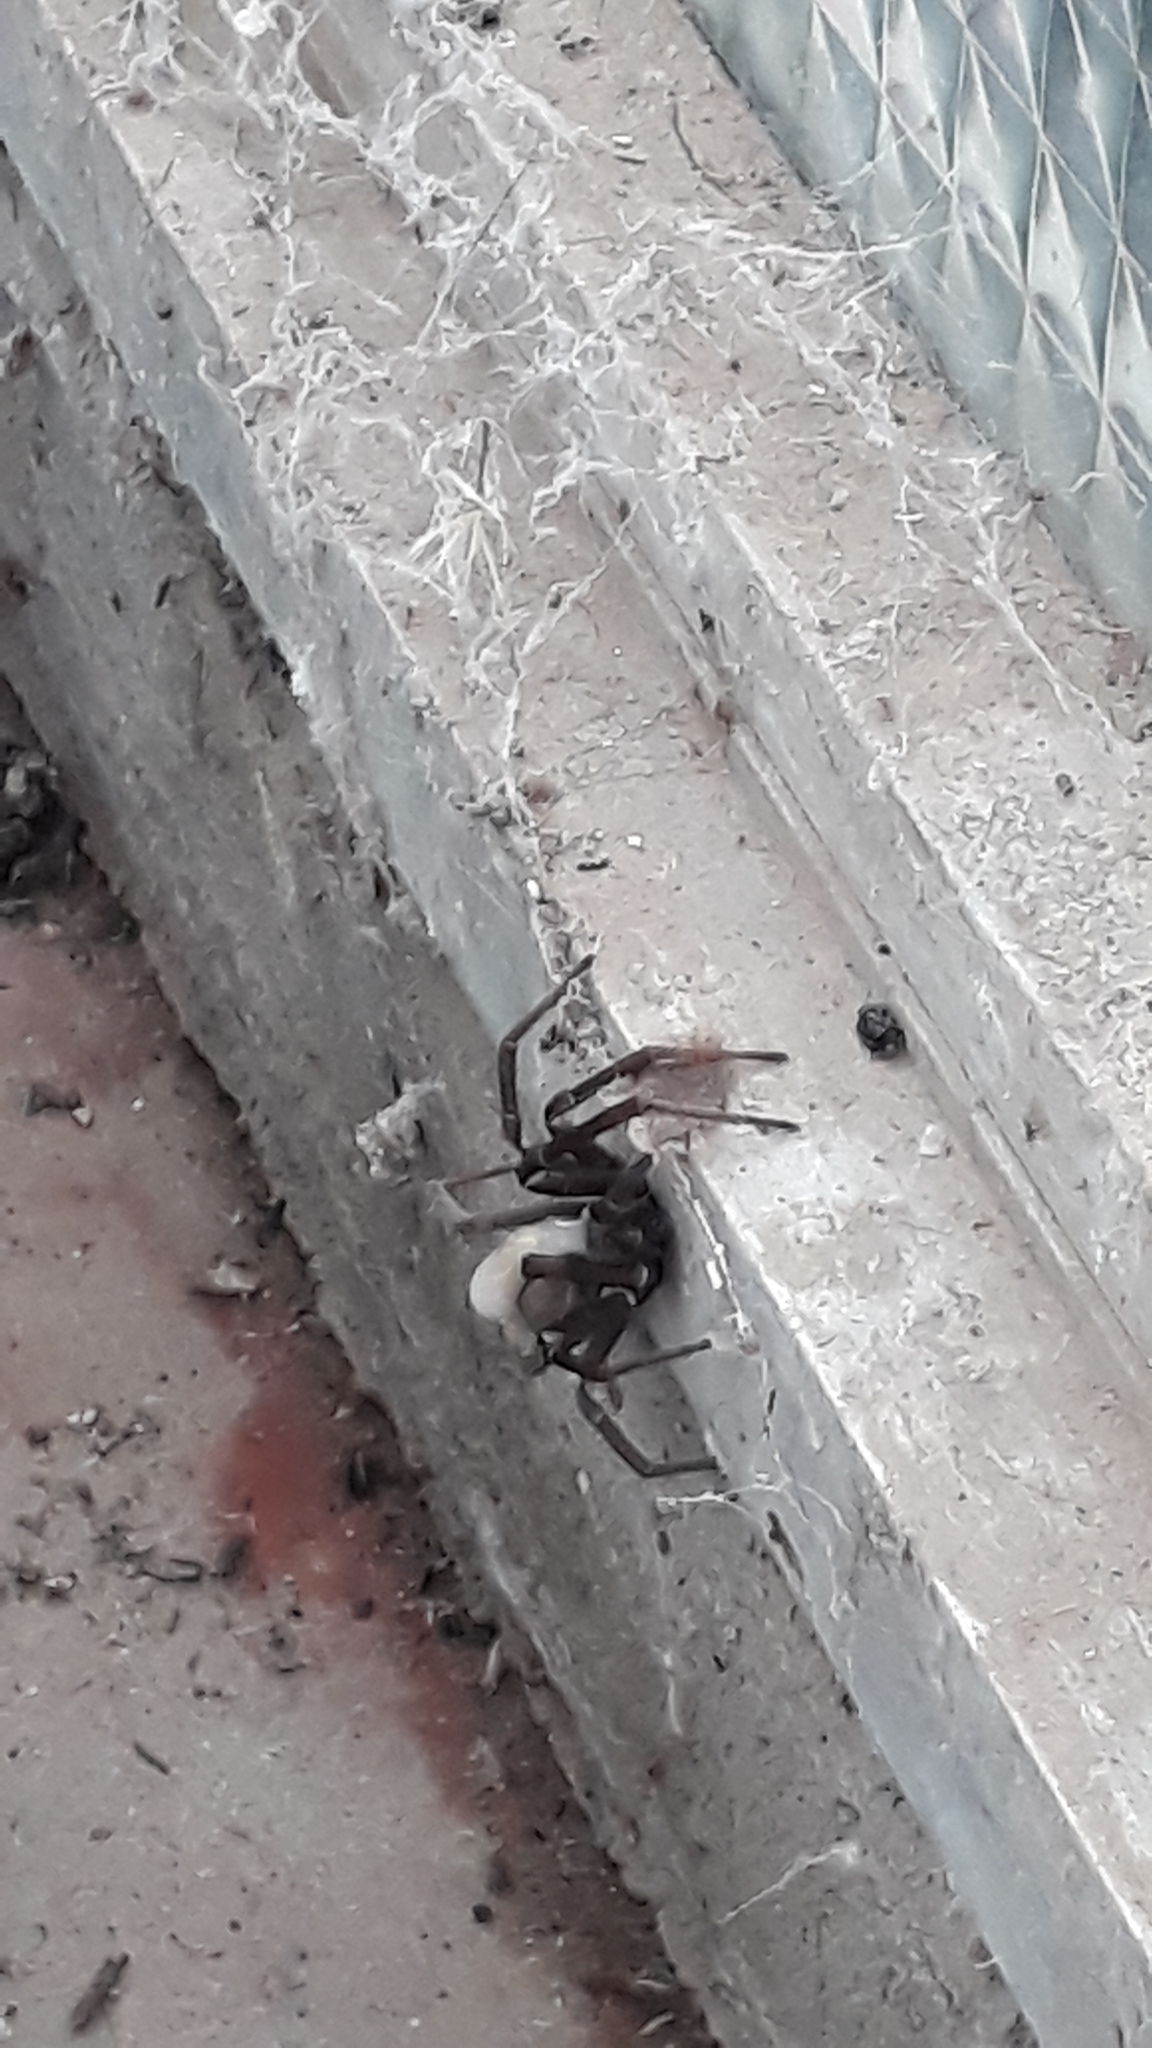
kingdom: Animalia
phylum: Arthropoda
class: Arachnida
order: Araneae
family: Filistatidae
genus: Kukulcania
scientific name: Kukulcania hibernalis
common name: Crevice weaver
